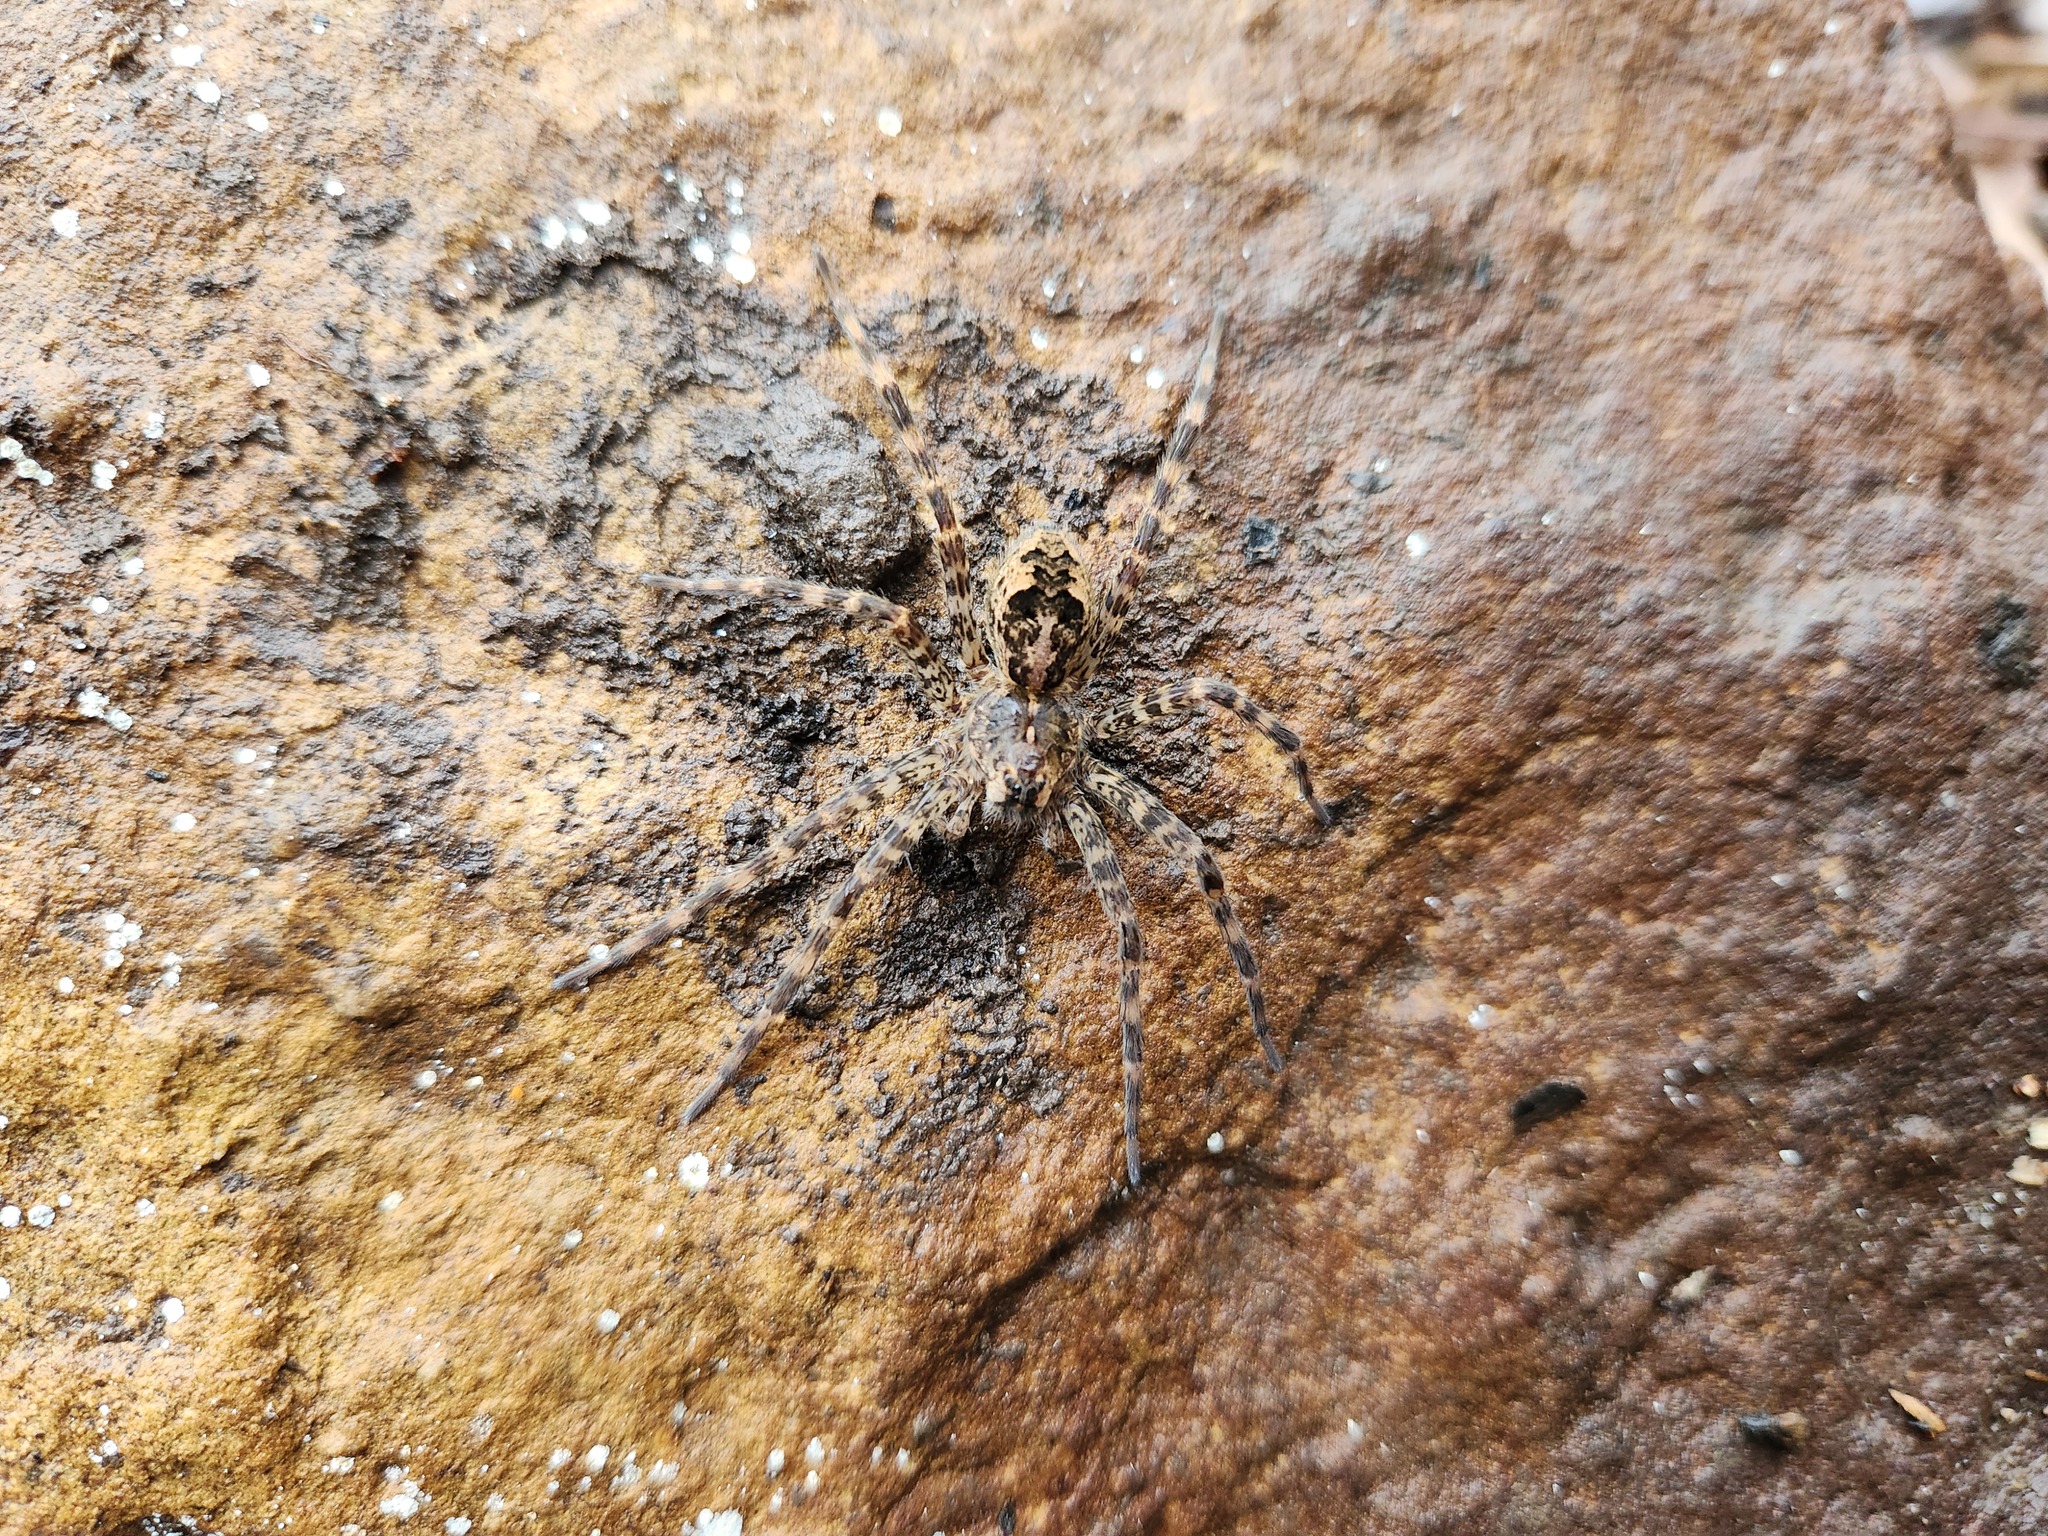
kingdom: Animalia
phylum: Arthropoda
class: Arachnida
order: Araneae
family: Pisauridae
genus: Dolomedes
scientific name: Dolomedes tenebrosus
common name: Dark fishing spider
